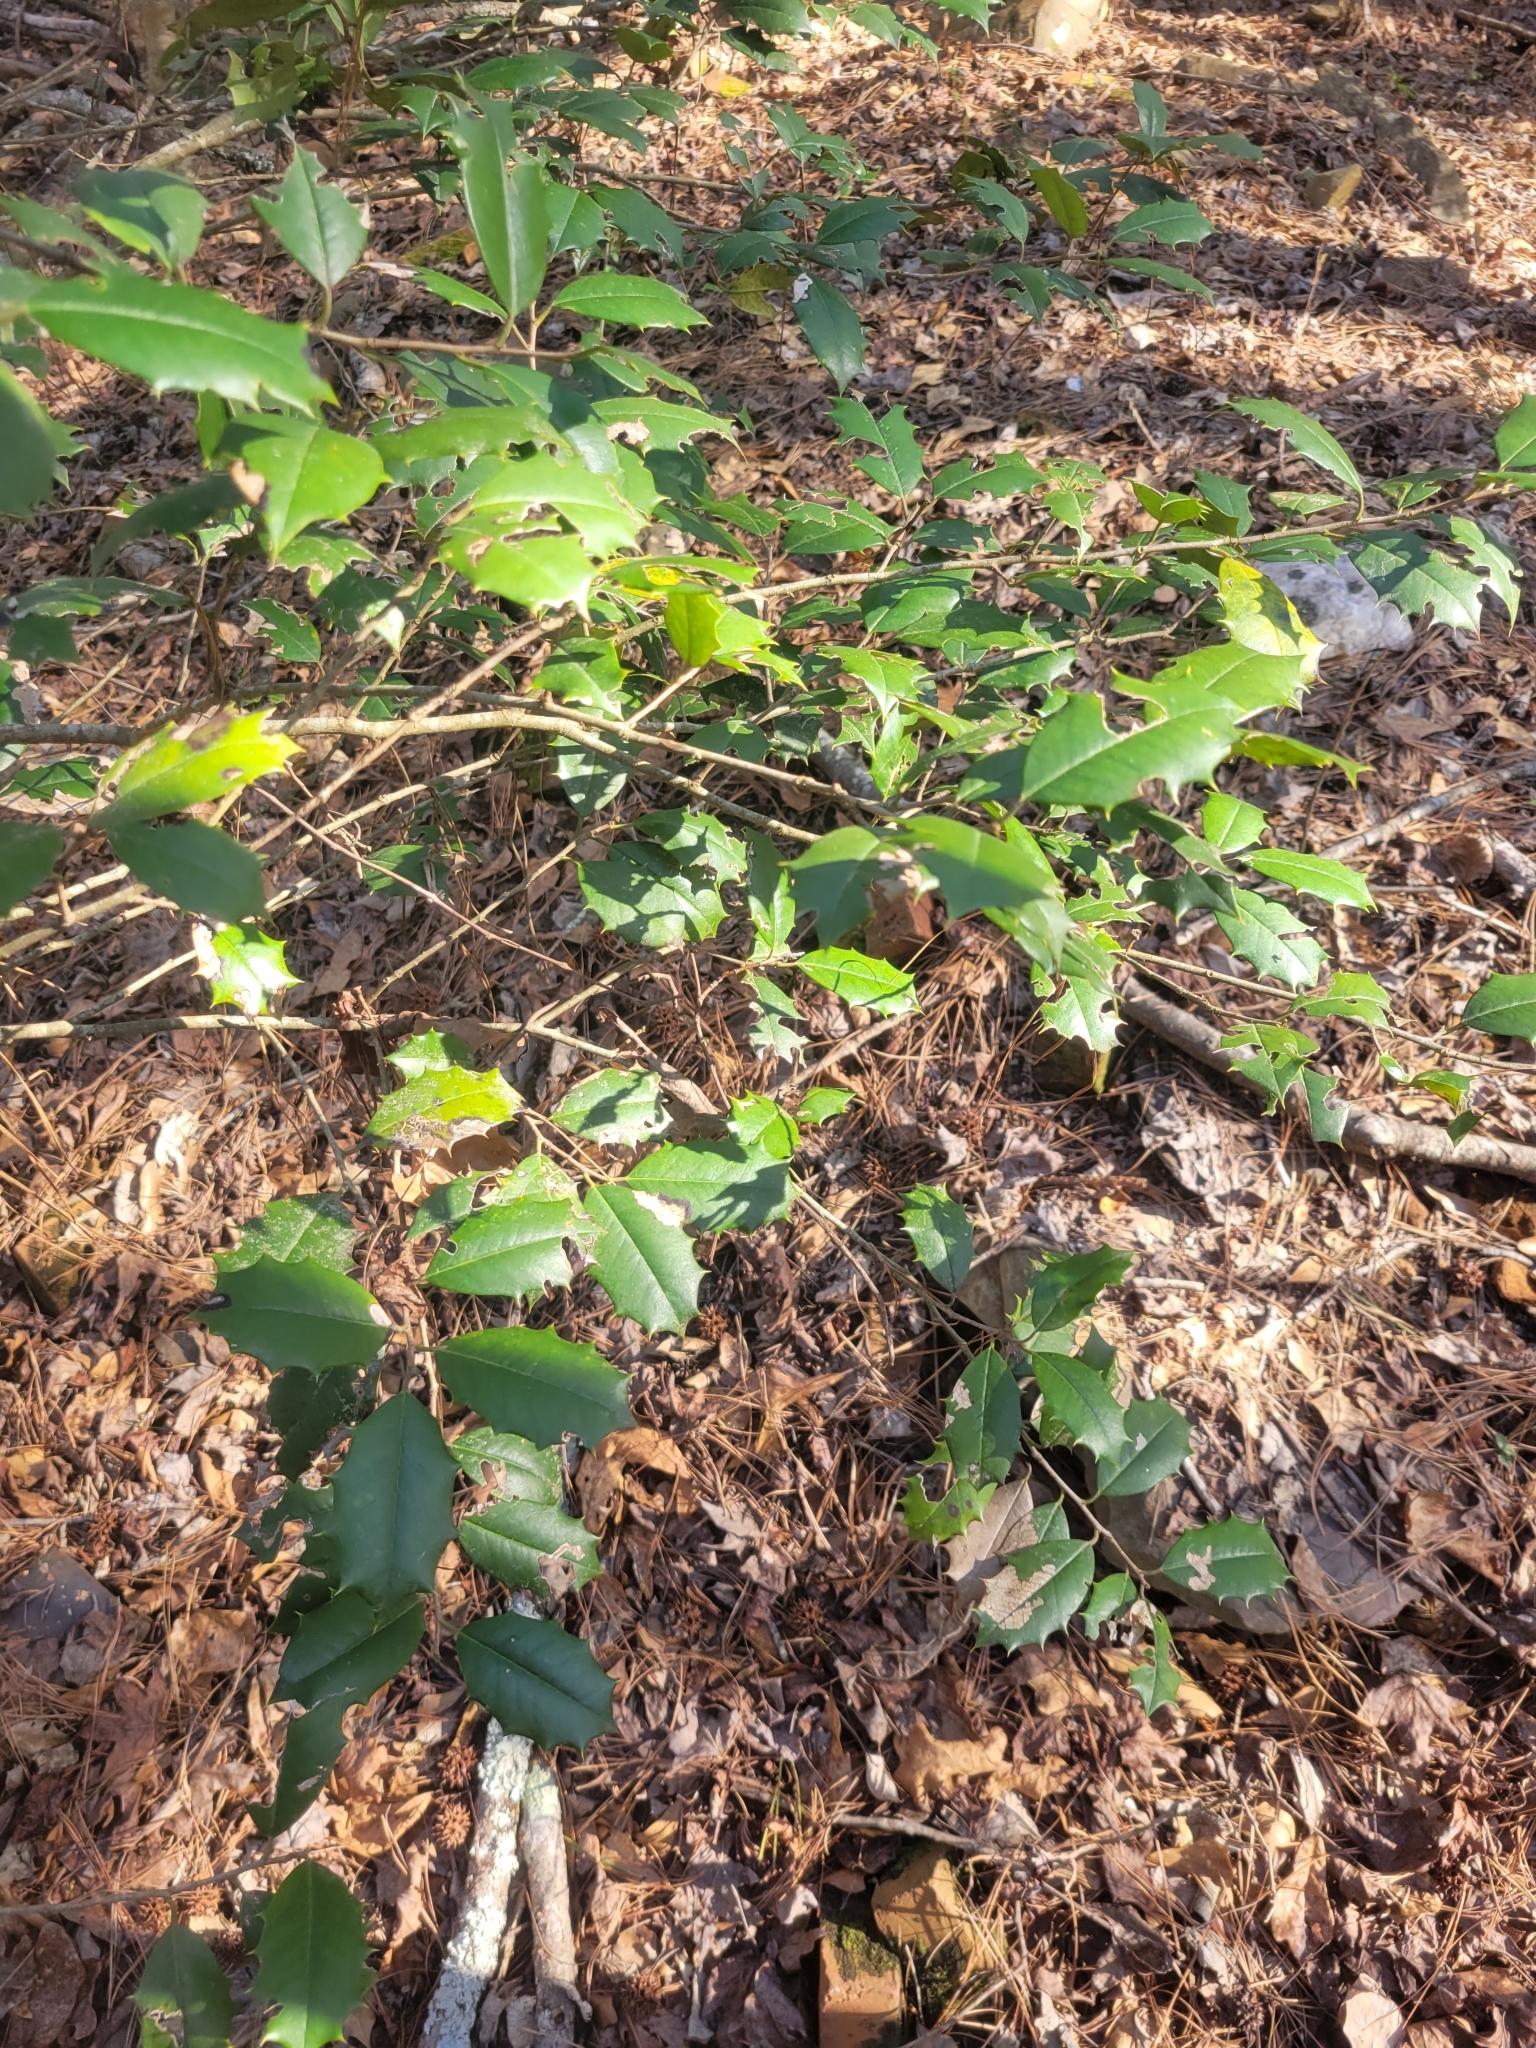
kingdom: Plantae
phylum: Tracheophyta
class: Magnoliopsida
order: Aquifoliales
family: Aquifoliaceae
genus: Ilex
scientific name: Ilex opaca
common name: American holly
